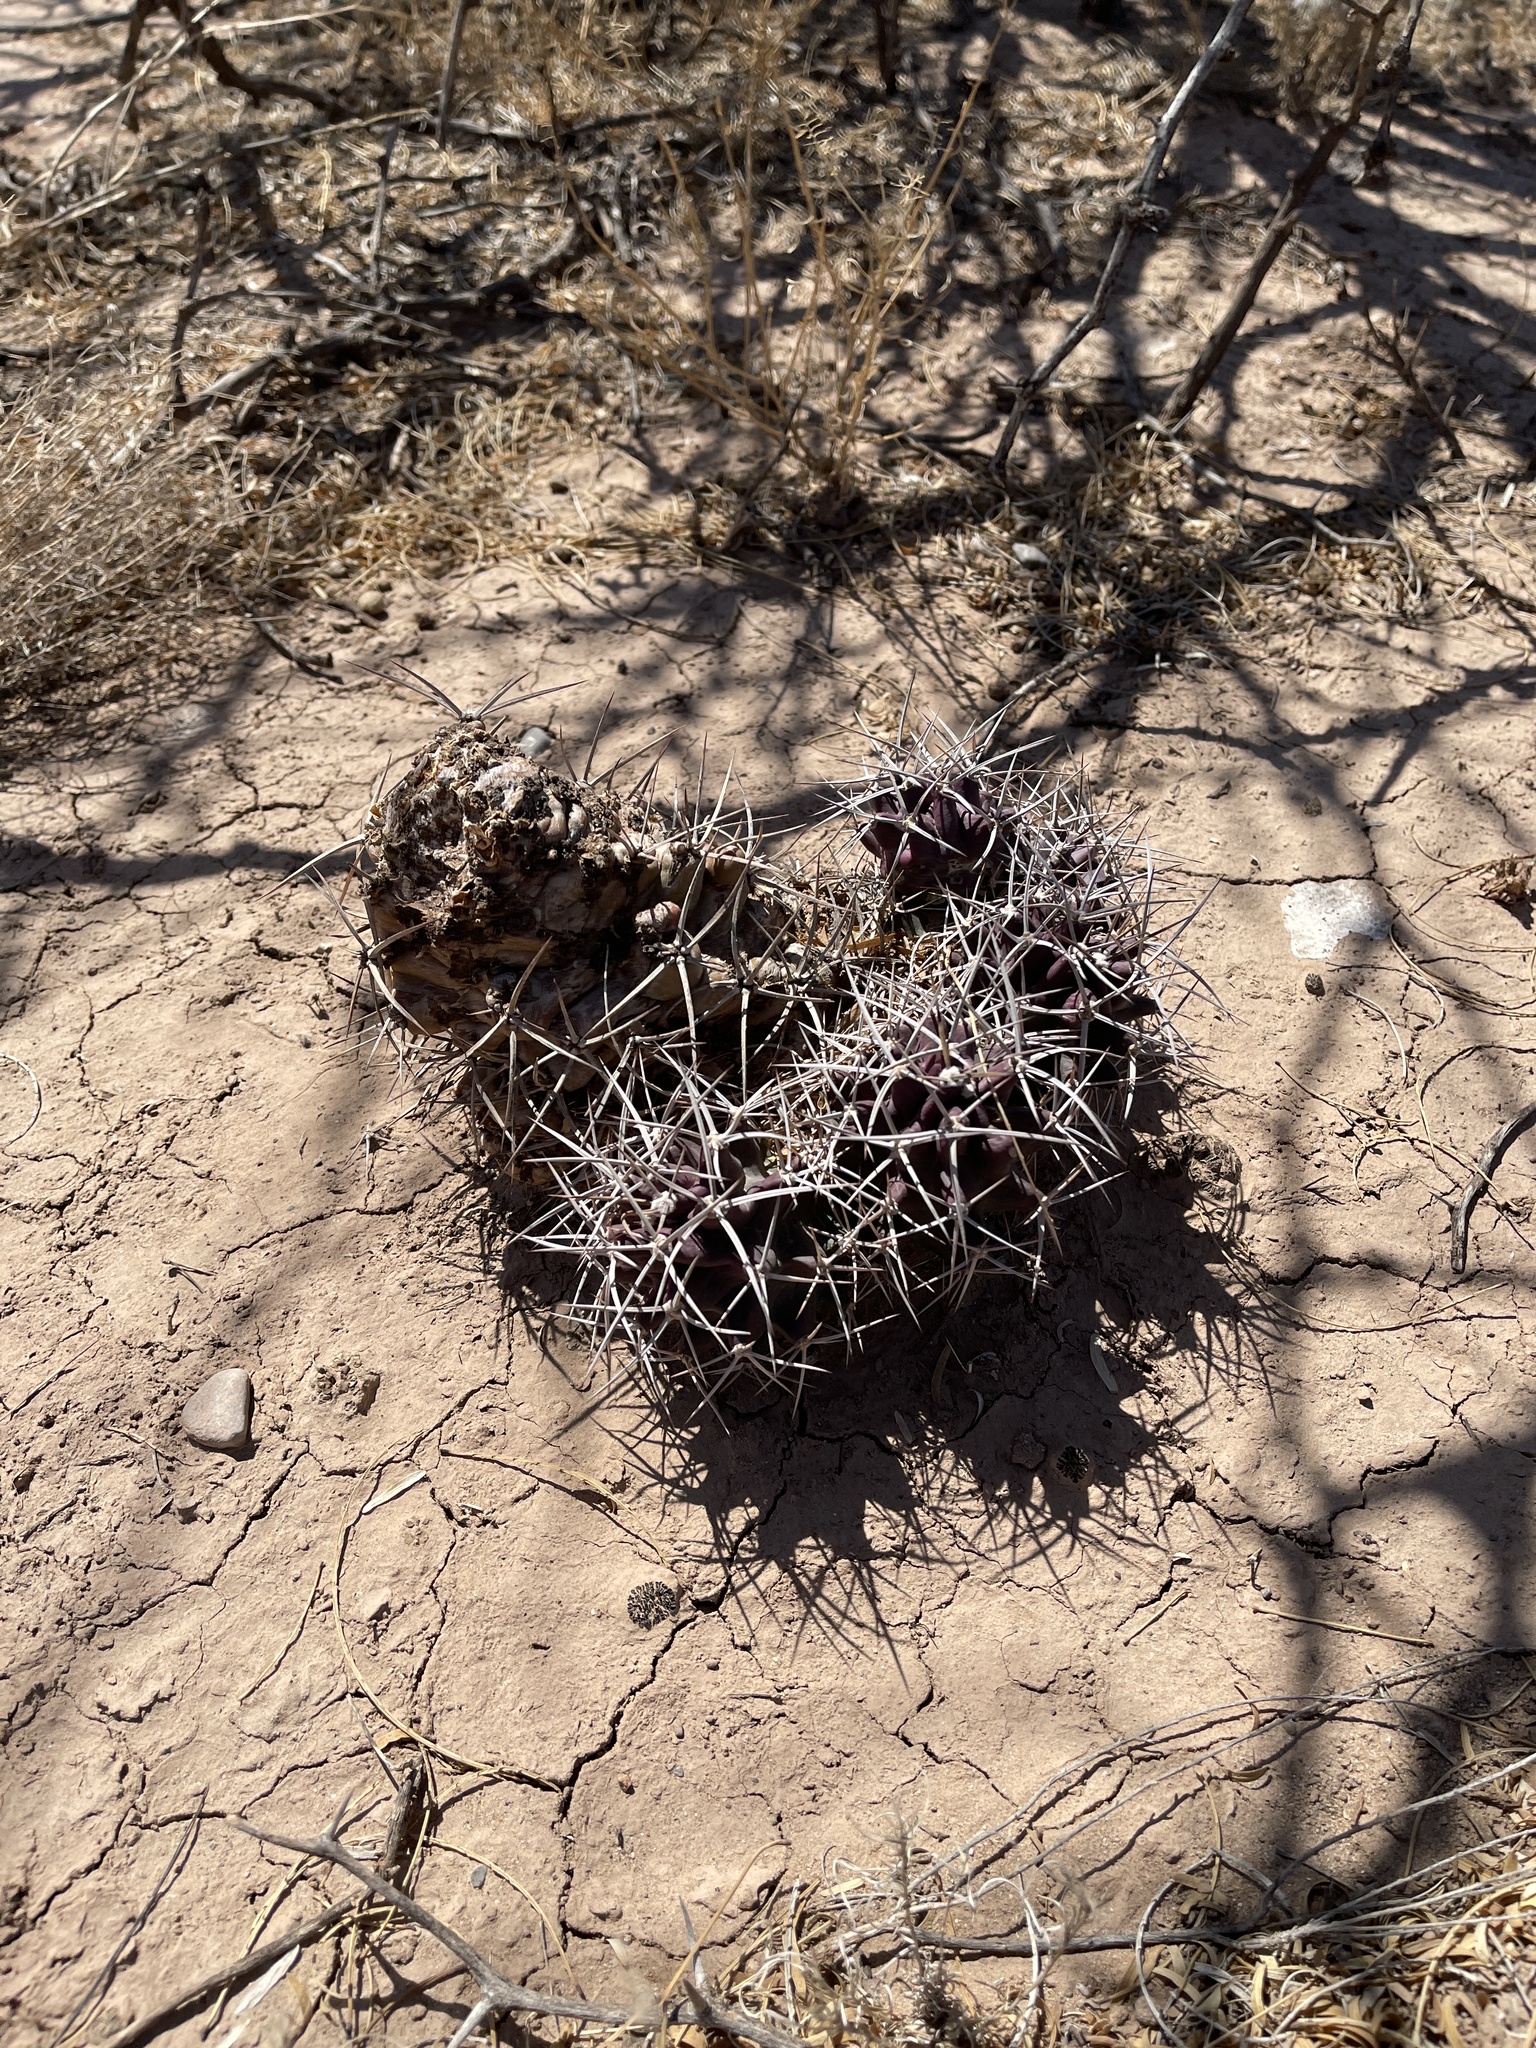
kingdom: Plantae
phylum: Tracheophyta
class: Magnoliopsida
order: Caryophyllales
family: Cactaceae
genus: Echinocereus
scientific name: Echinocereus triglochidiatus
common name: Claretcup hedgehog
